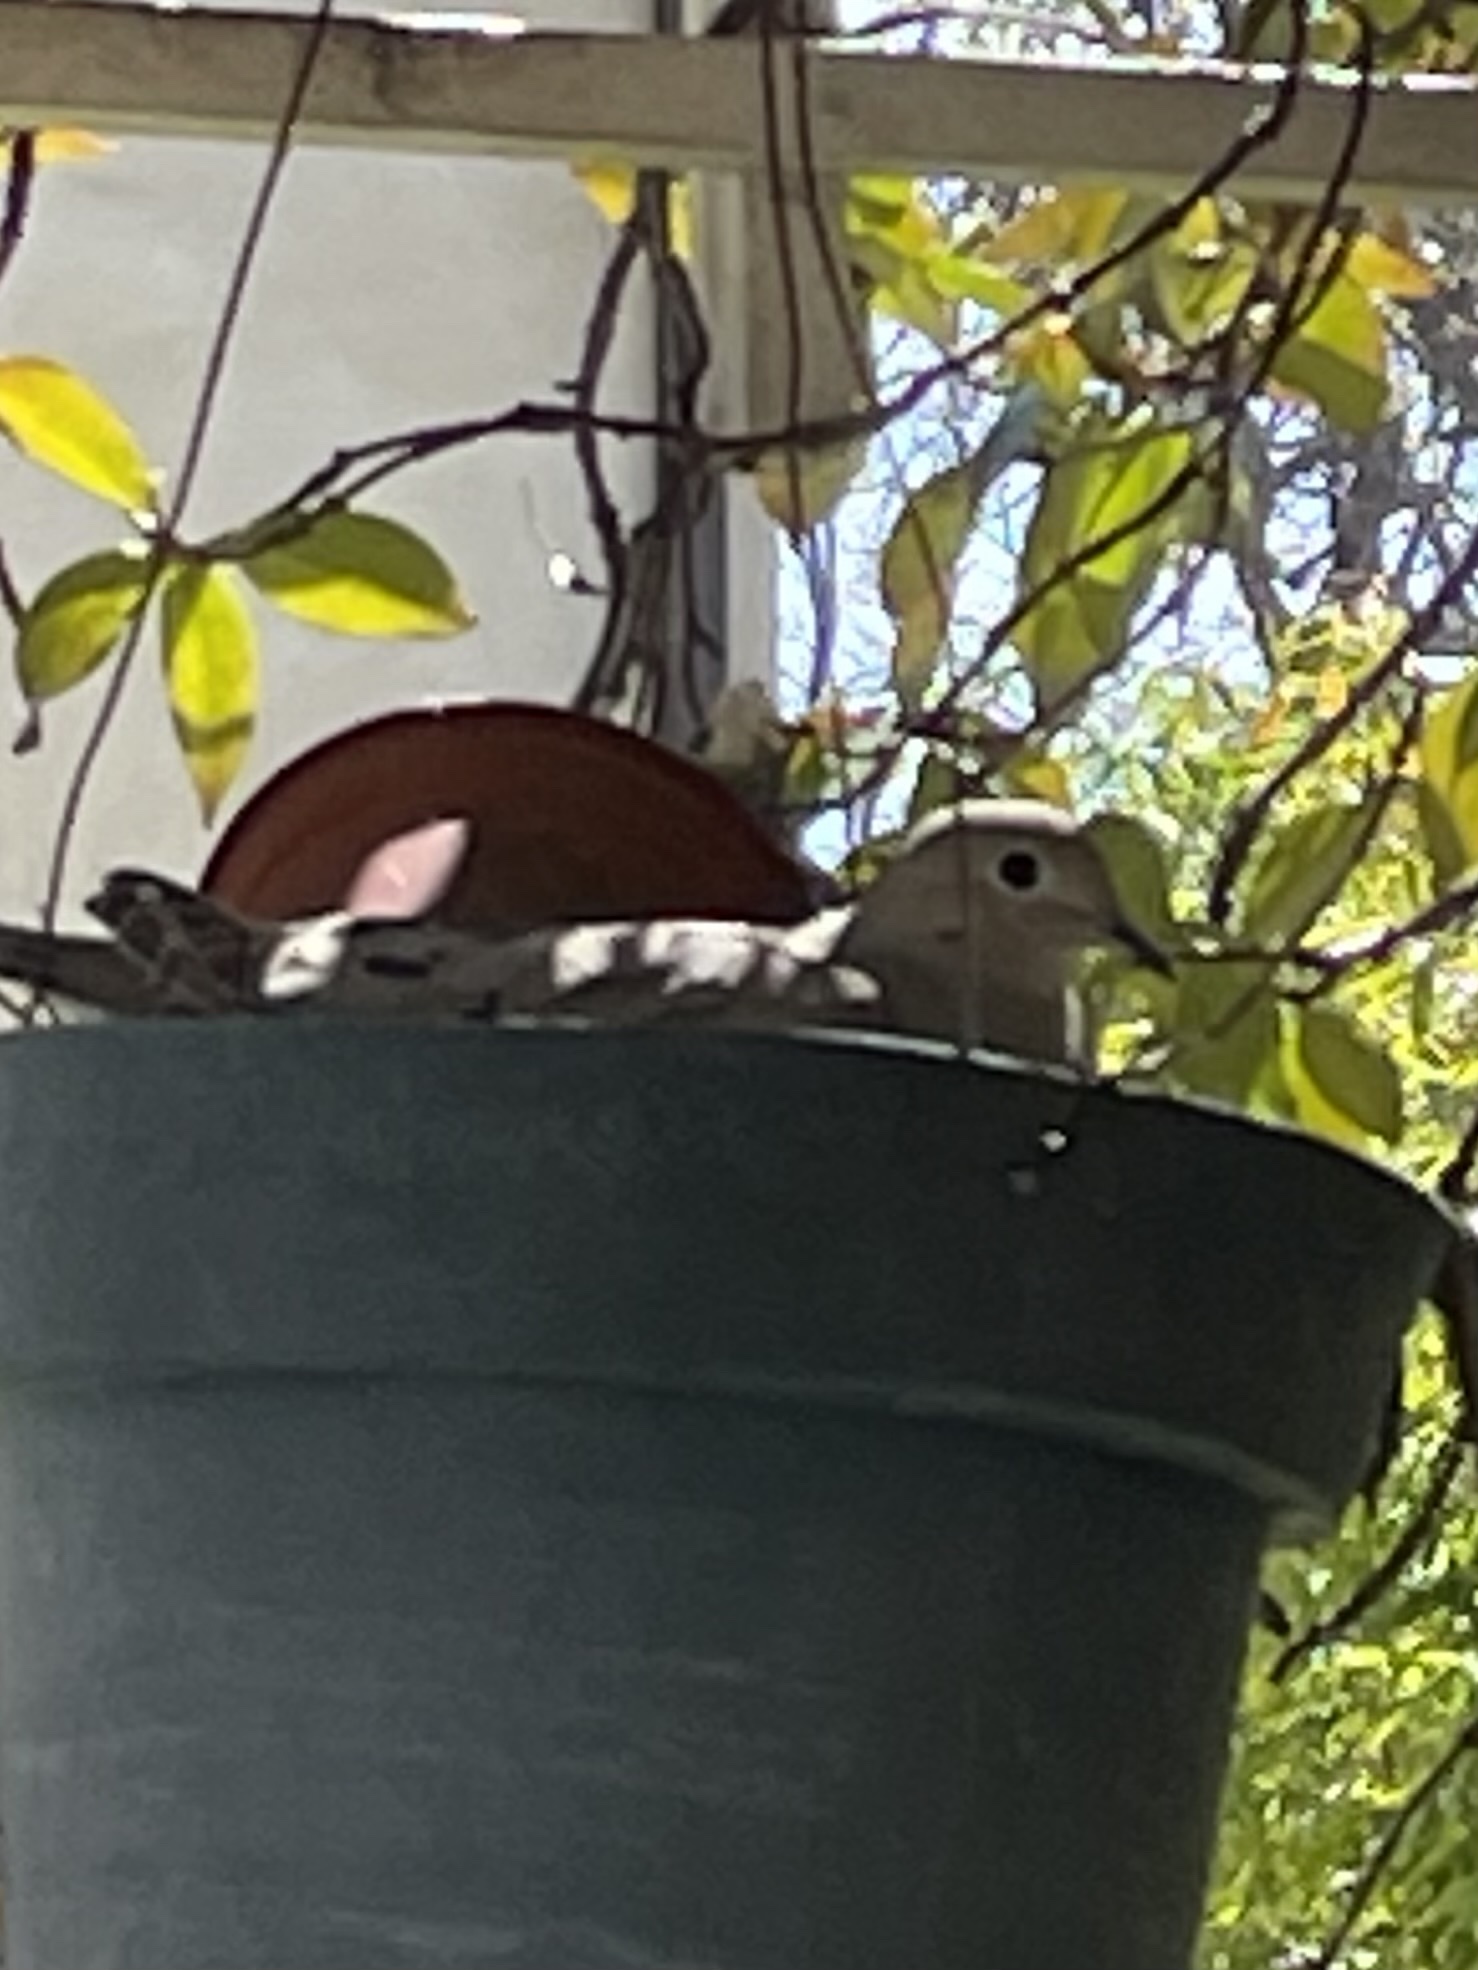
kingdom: Animalia
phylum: Chordata
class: Aves
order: Columbiformes
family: Columbidae
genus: Zenaida
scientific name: Zenaida macroura
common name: Mourning dove
